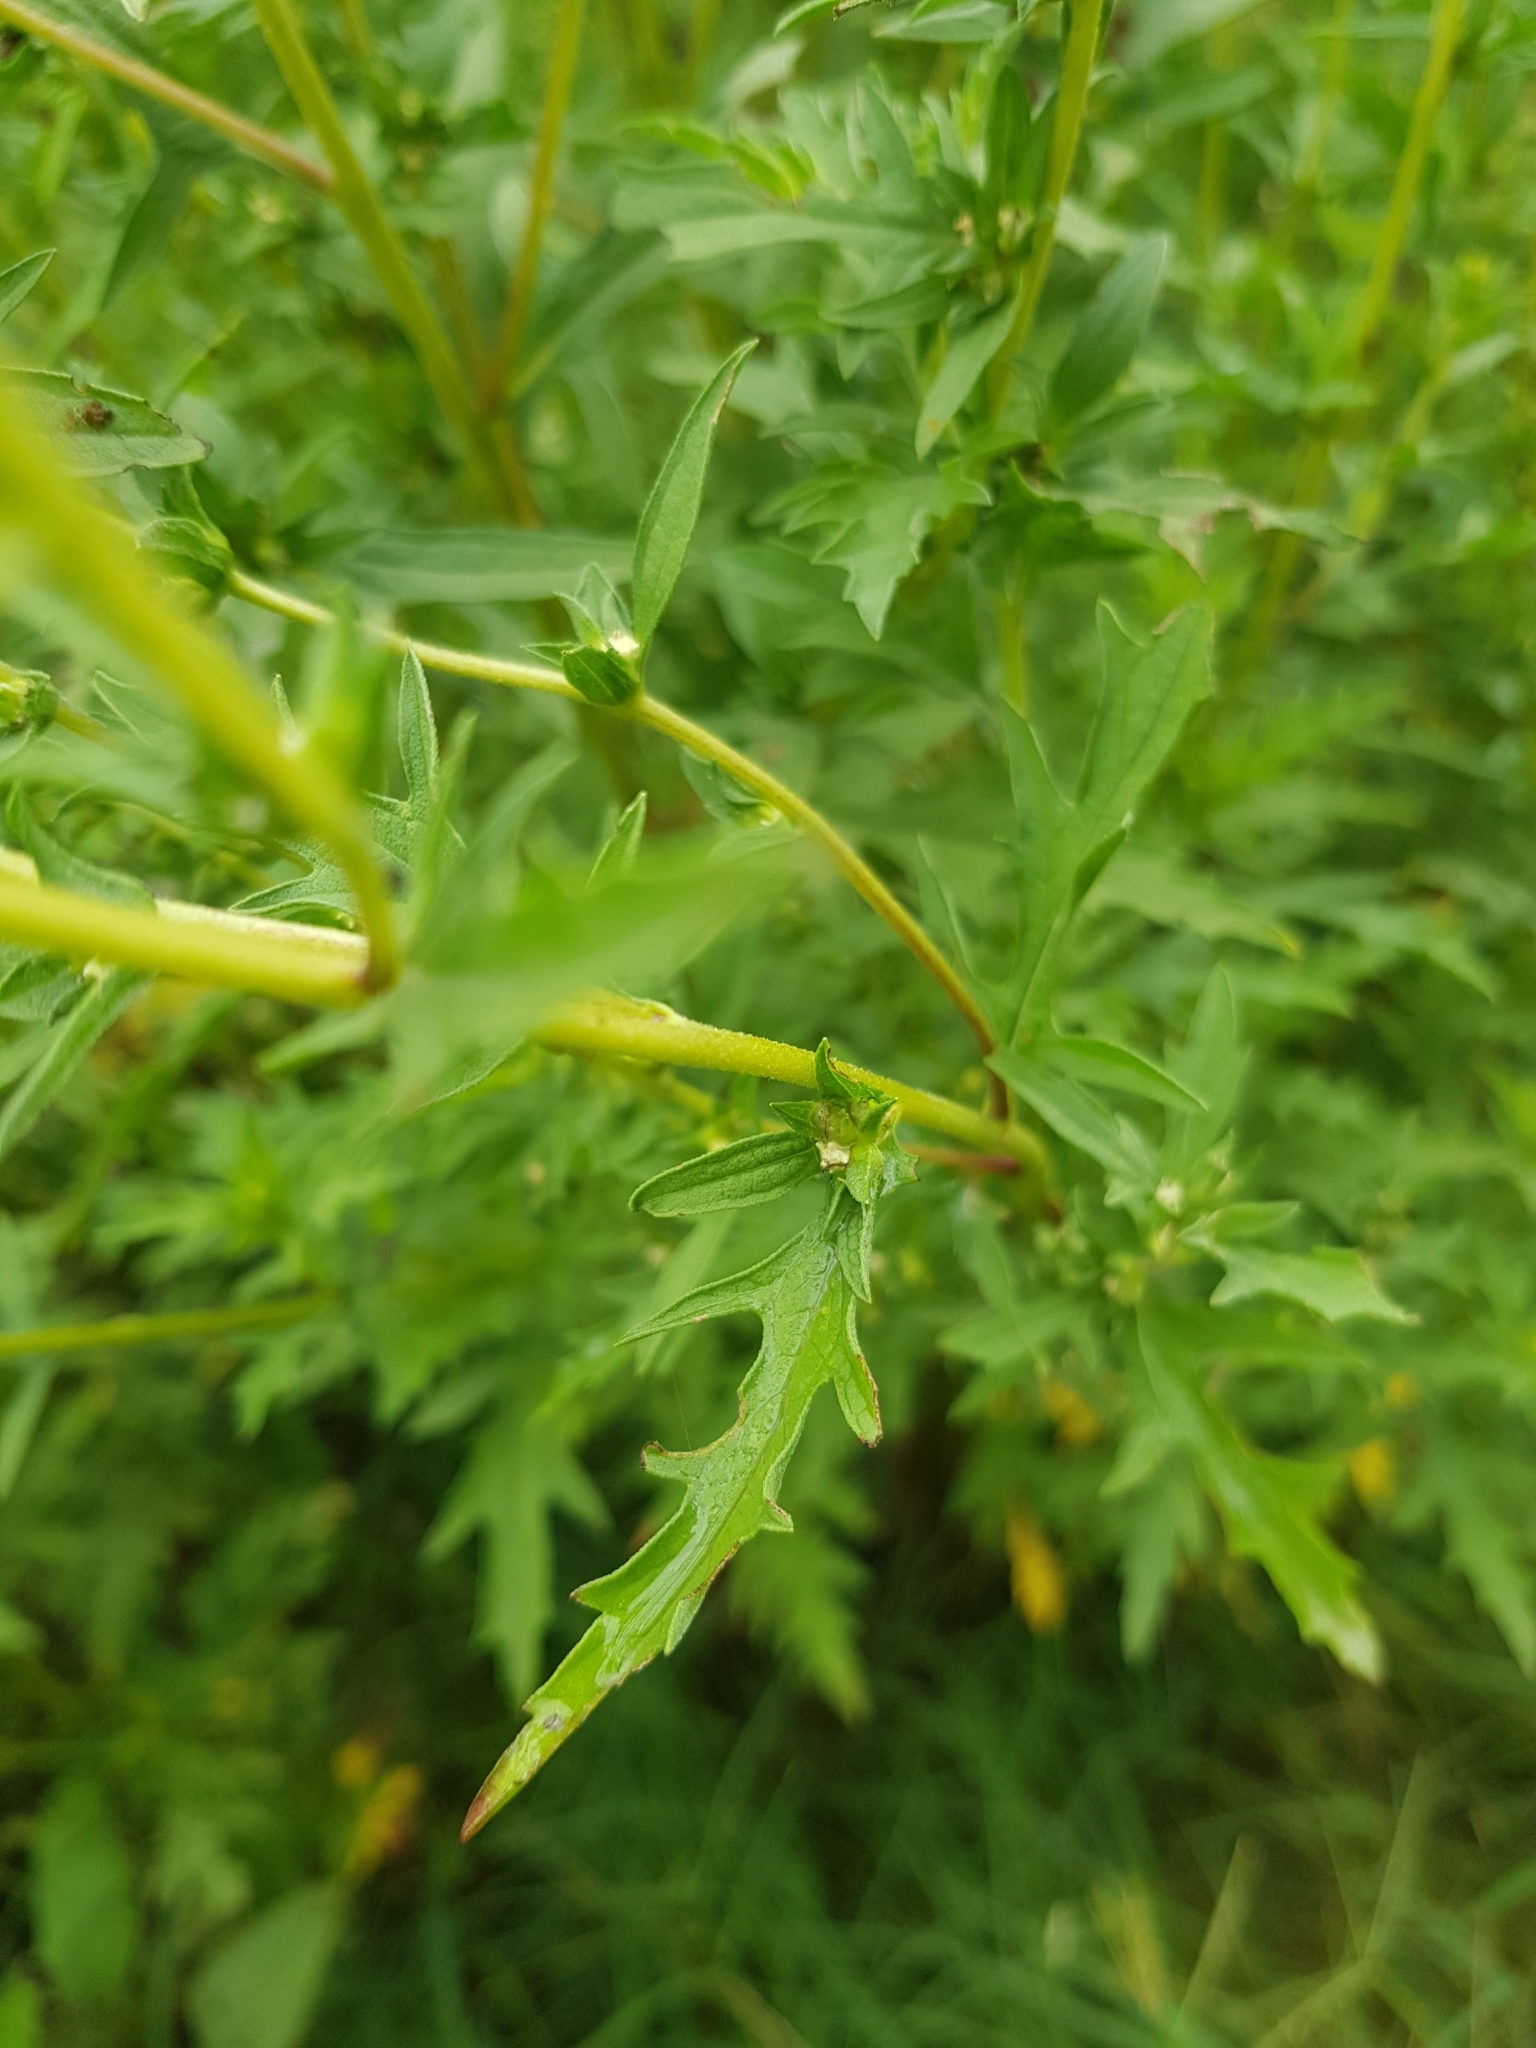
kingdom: Plantae
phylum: Tracheophyta
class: Magnoliopsida
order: Asterales
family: Asteraceae
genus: Ambrosia
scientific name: Ambrosia confertiflora
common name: Bur ragweed
